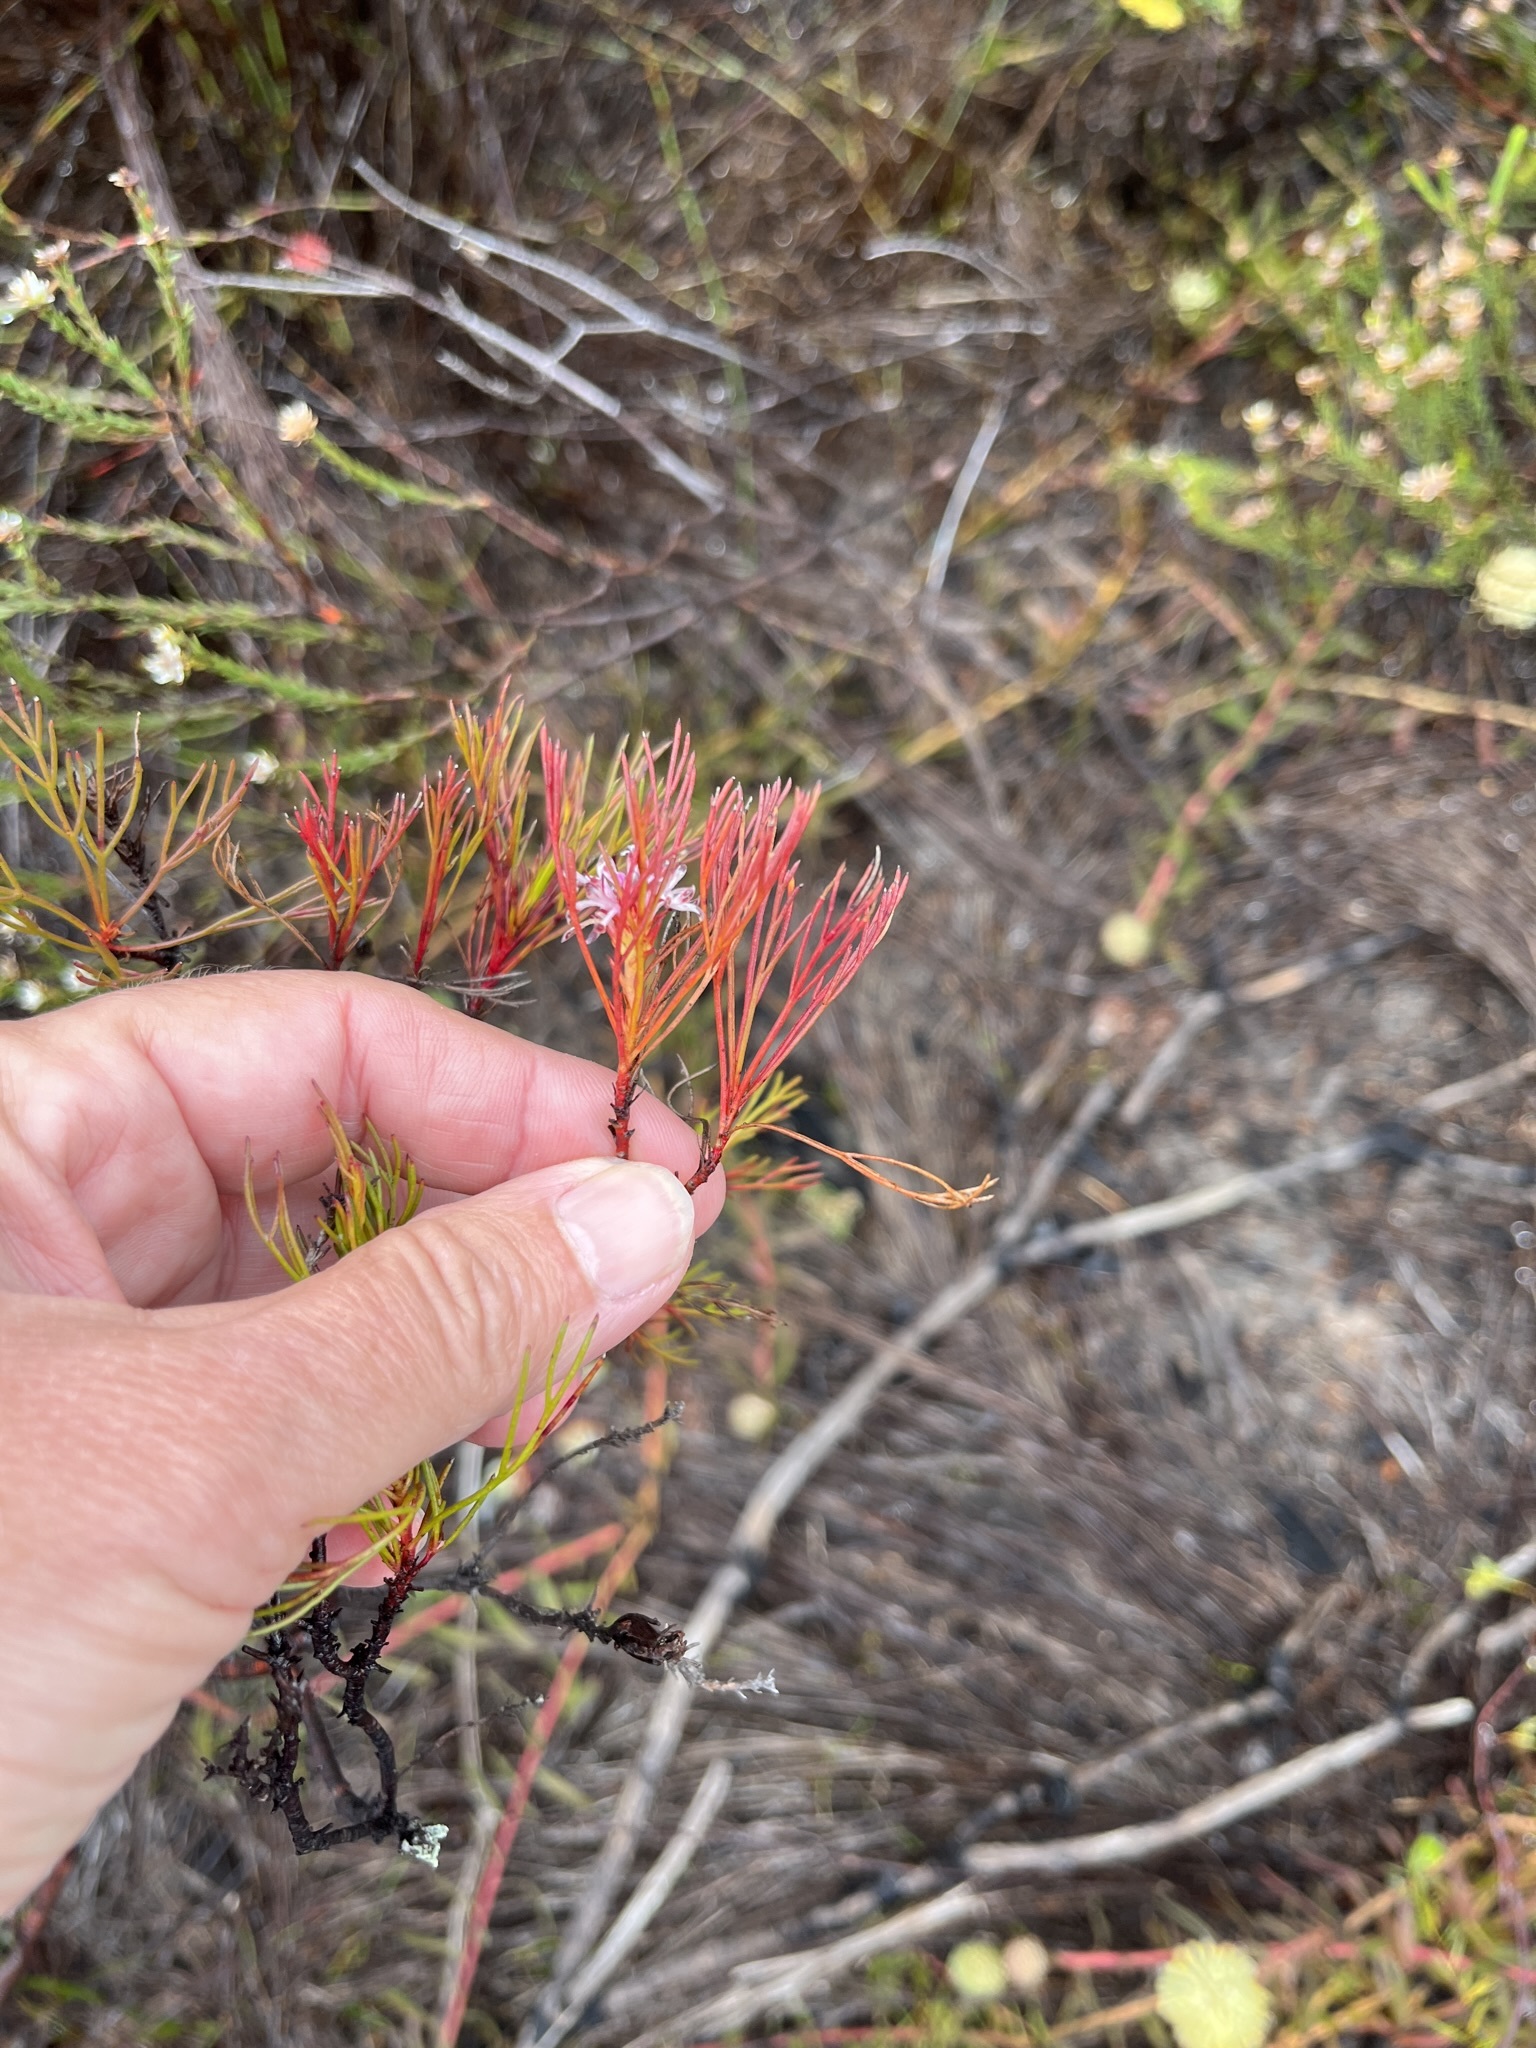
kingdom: Plantae
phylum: Tracheophyta
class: Magnoliopsida
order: Proteales
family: Proteaceae
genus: Serruria
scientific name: Serruria bolusii
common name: Agulhas spiderhead
